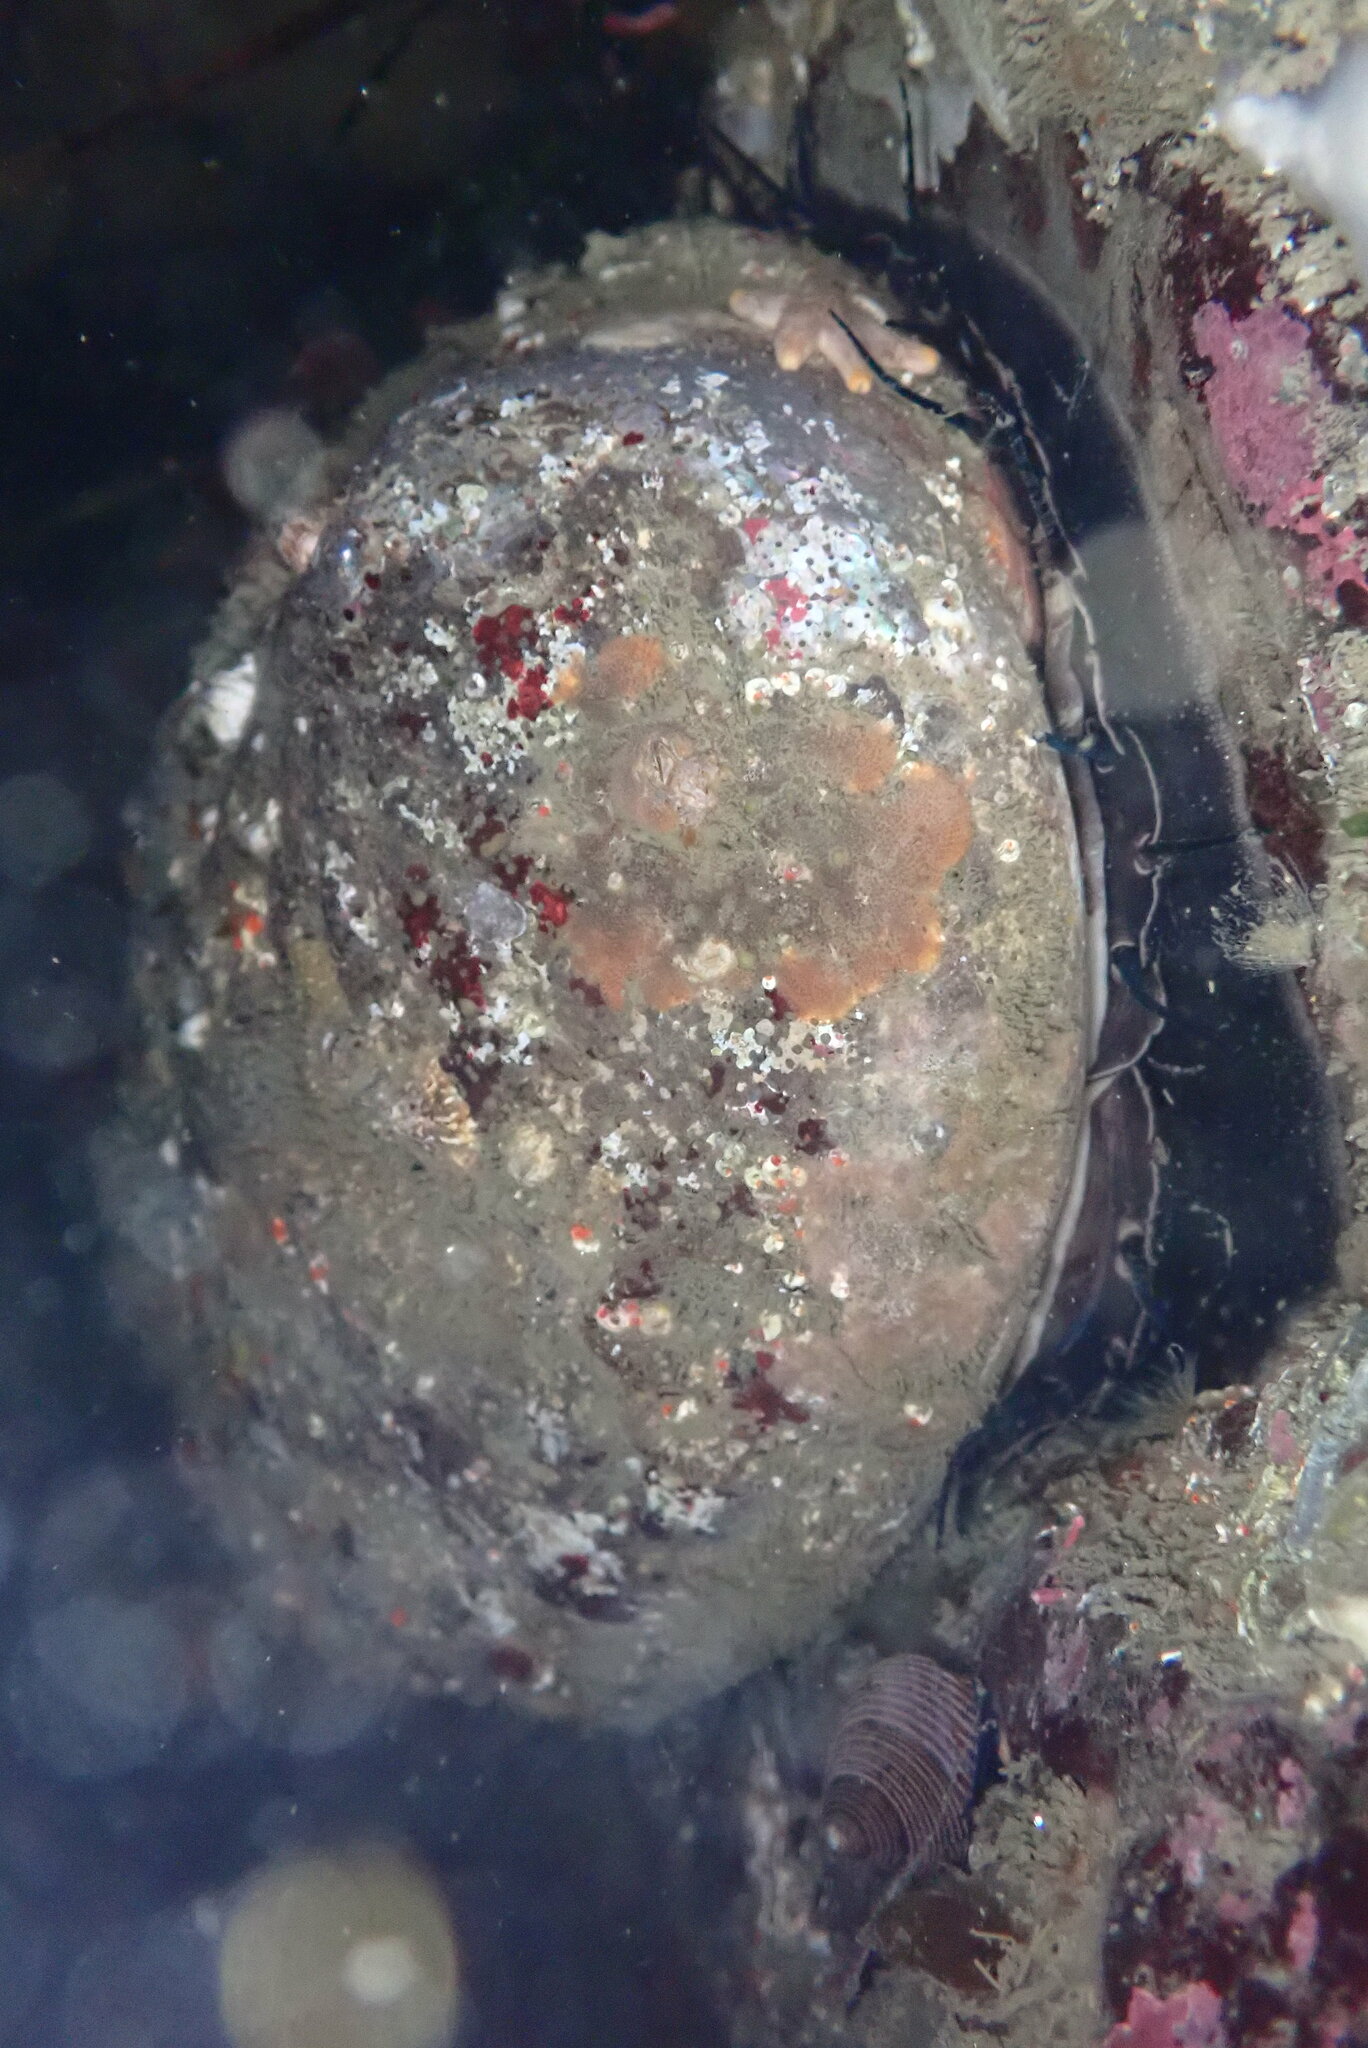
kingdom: Animalia
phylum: Mollusca
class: Gastropoda
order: Lepetellida
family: Haliotidae
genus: Haliotis
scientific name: Haliotis rufescens
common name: Red abalone
